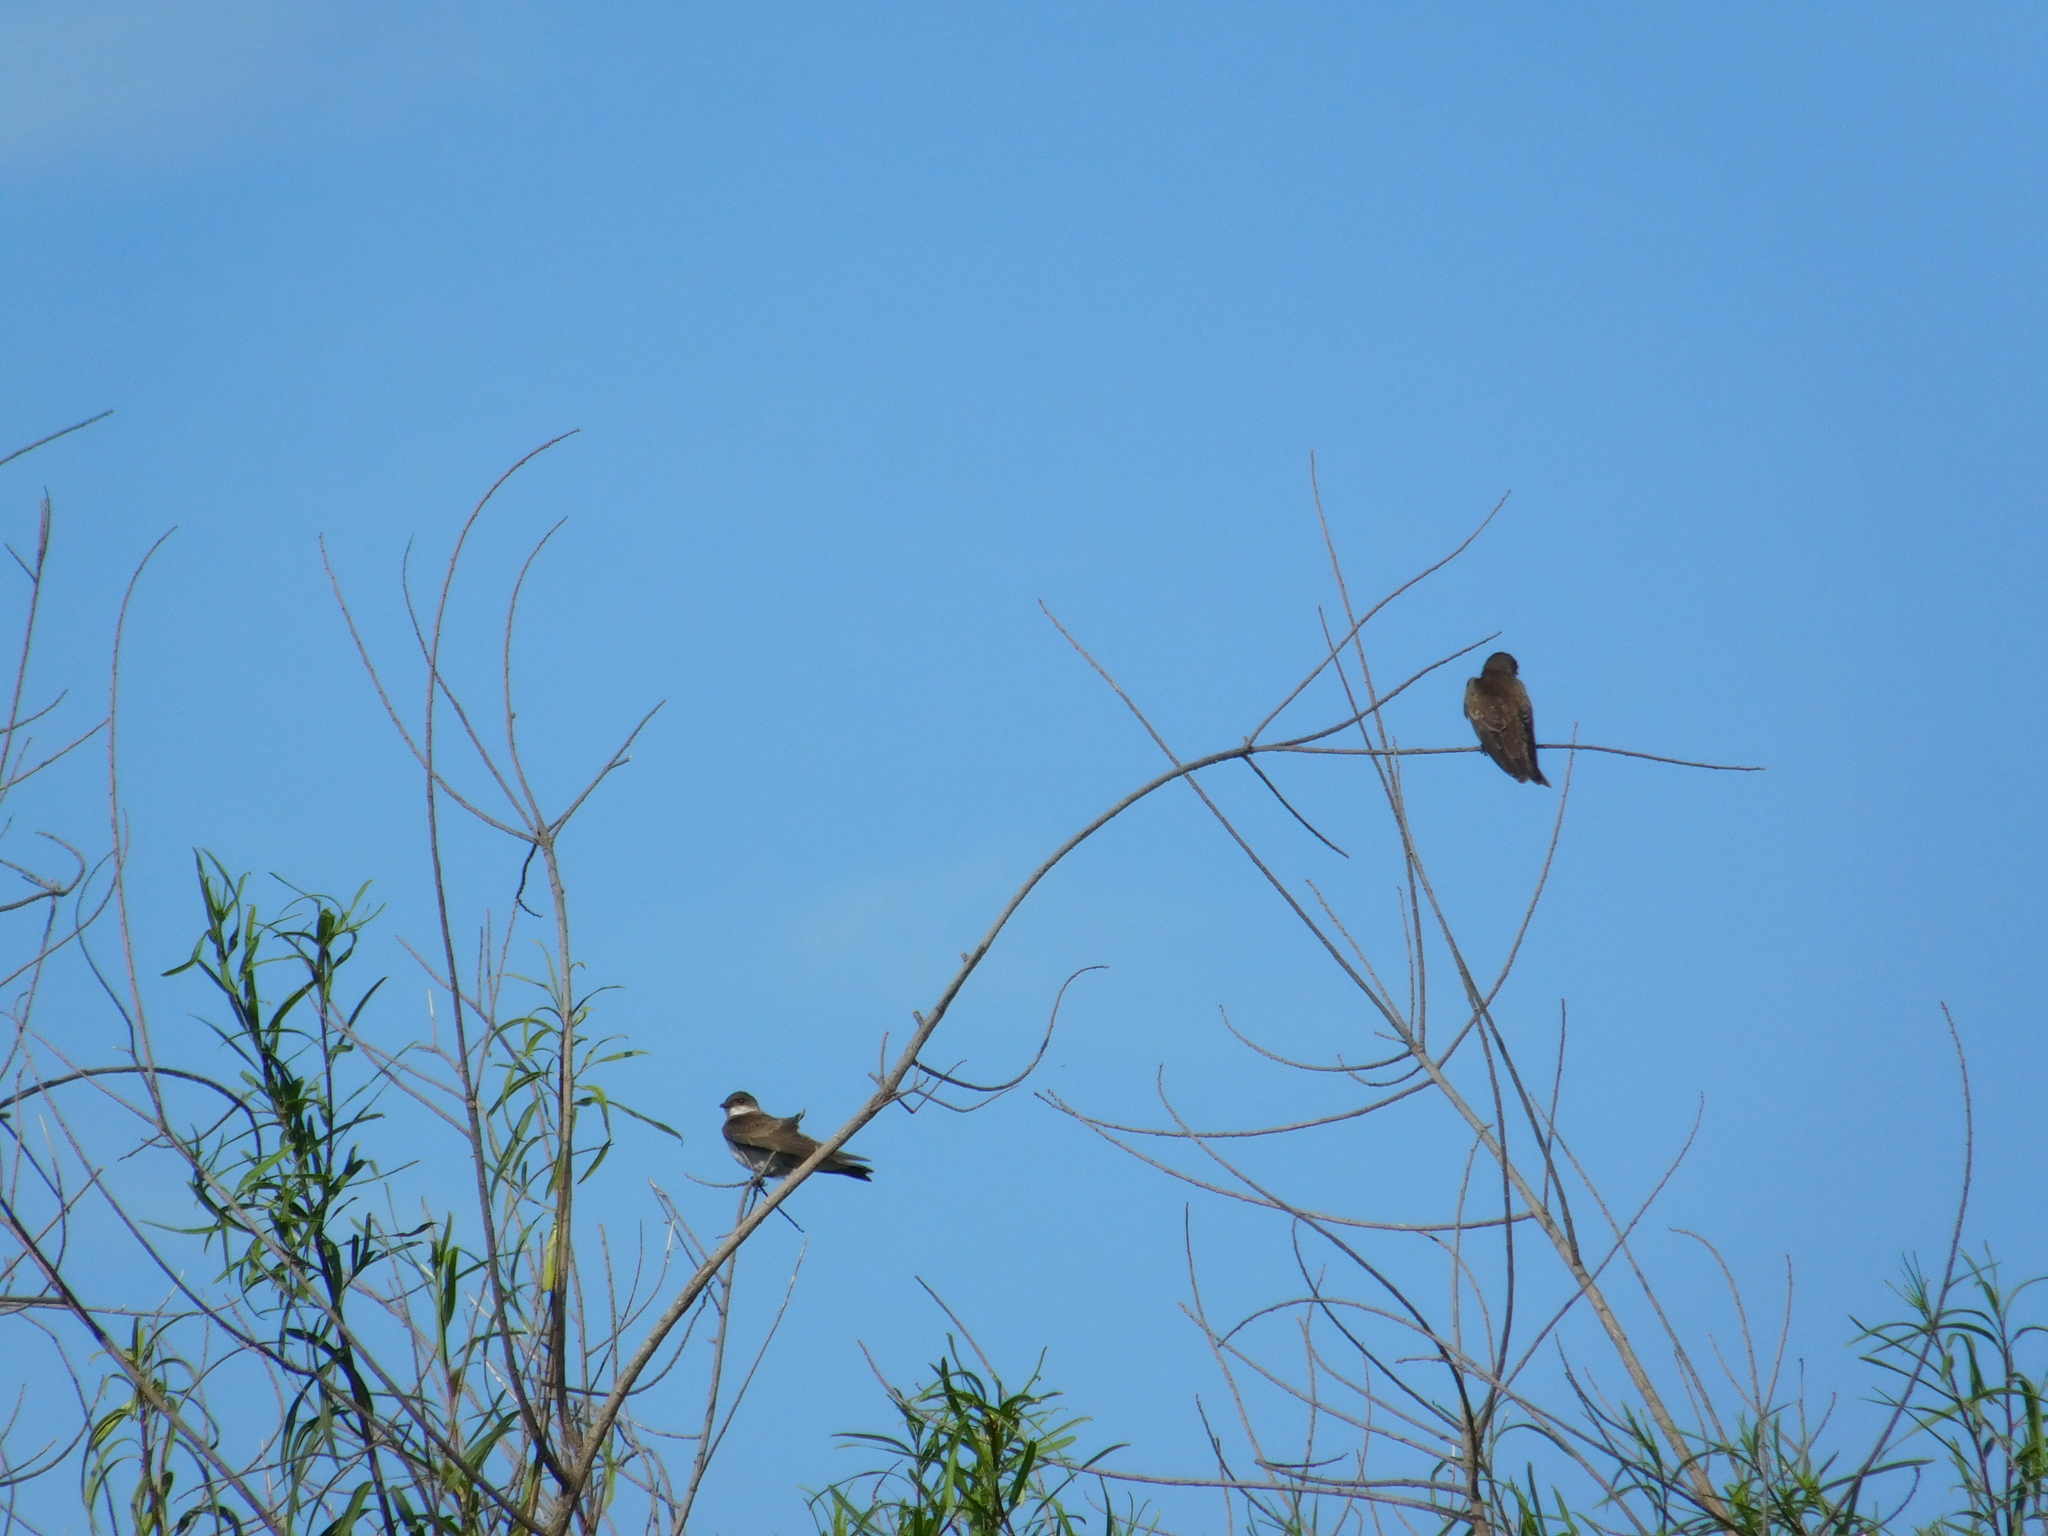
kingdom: Animalia
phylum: Chordata
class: Aves
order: Passeriformes
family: Hirundinidae
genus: Progne
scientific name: Progne tapera
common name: Brown-chested martin
